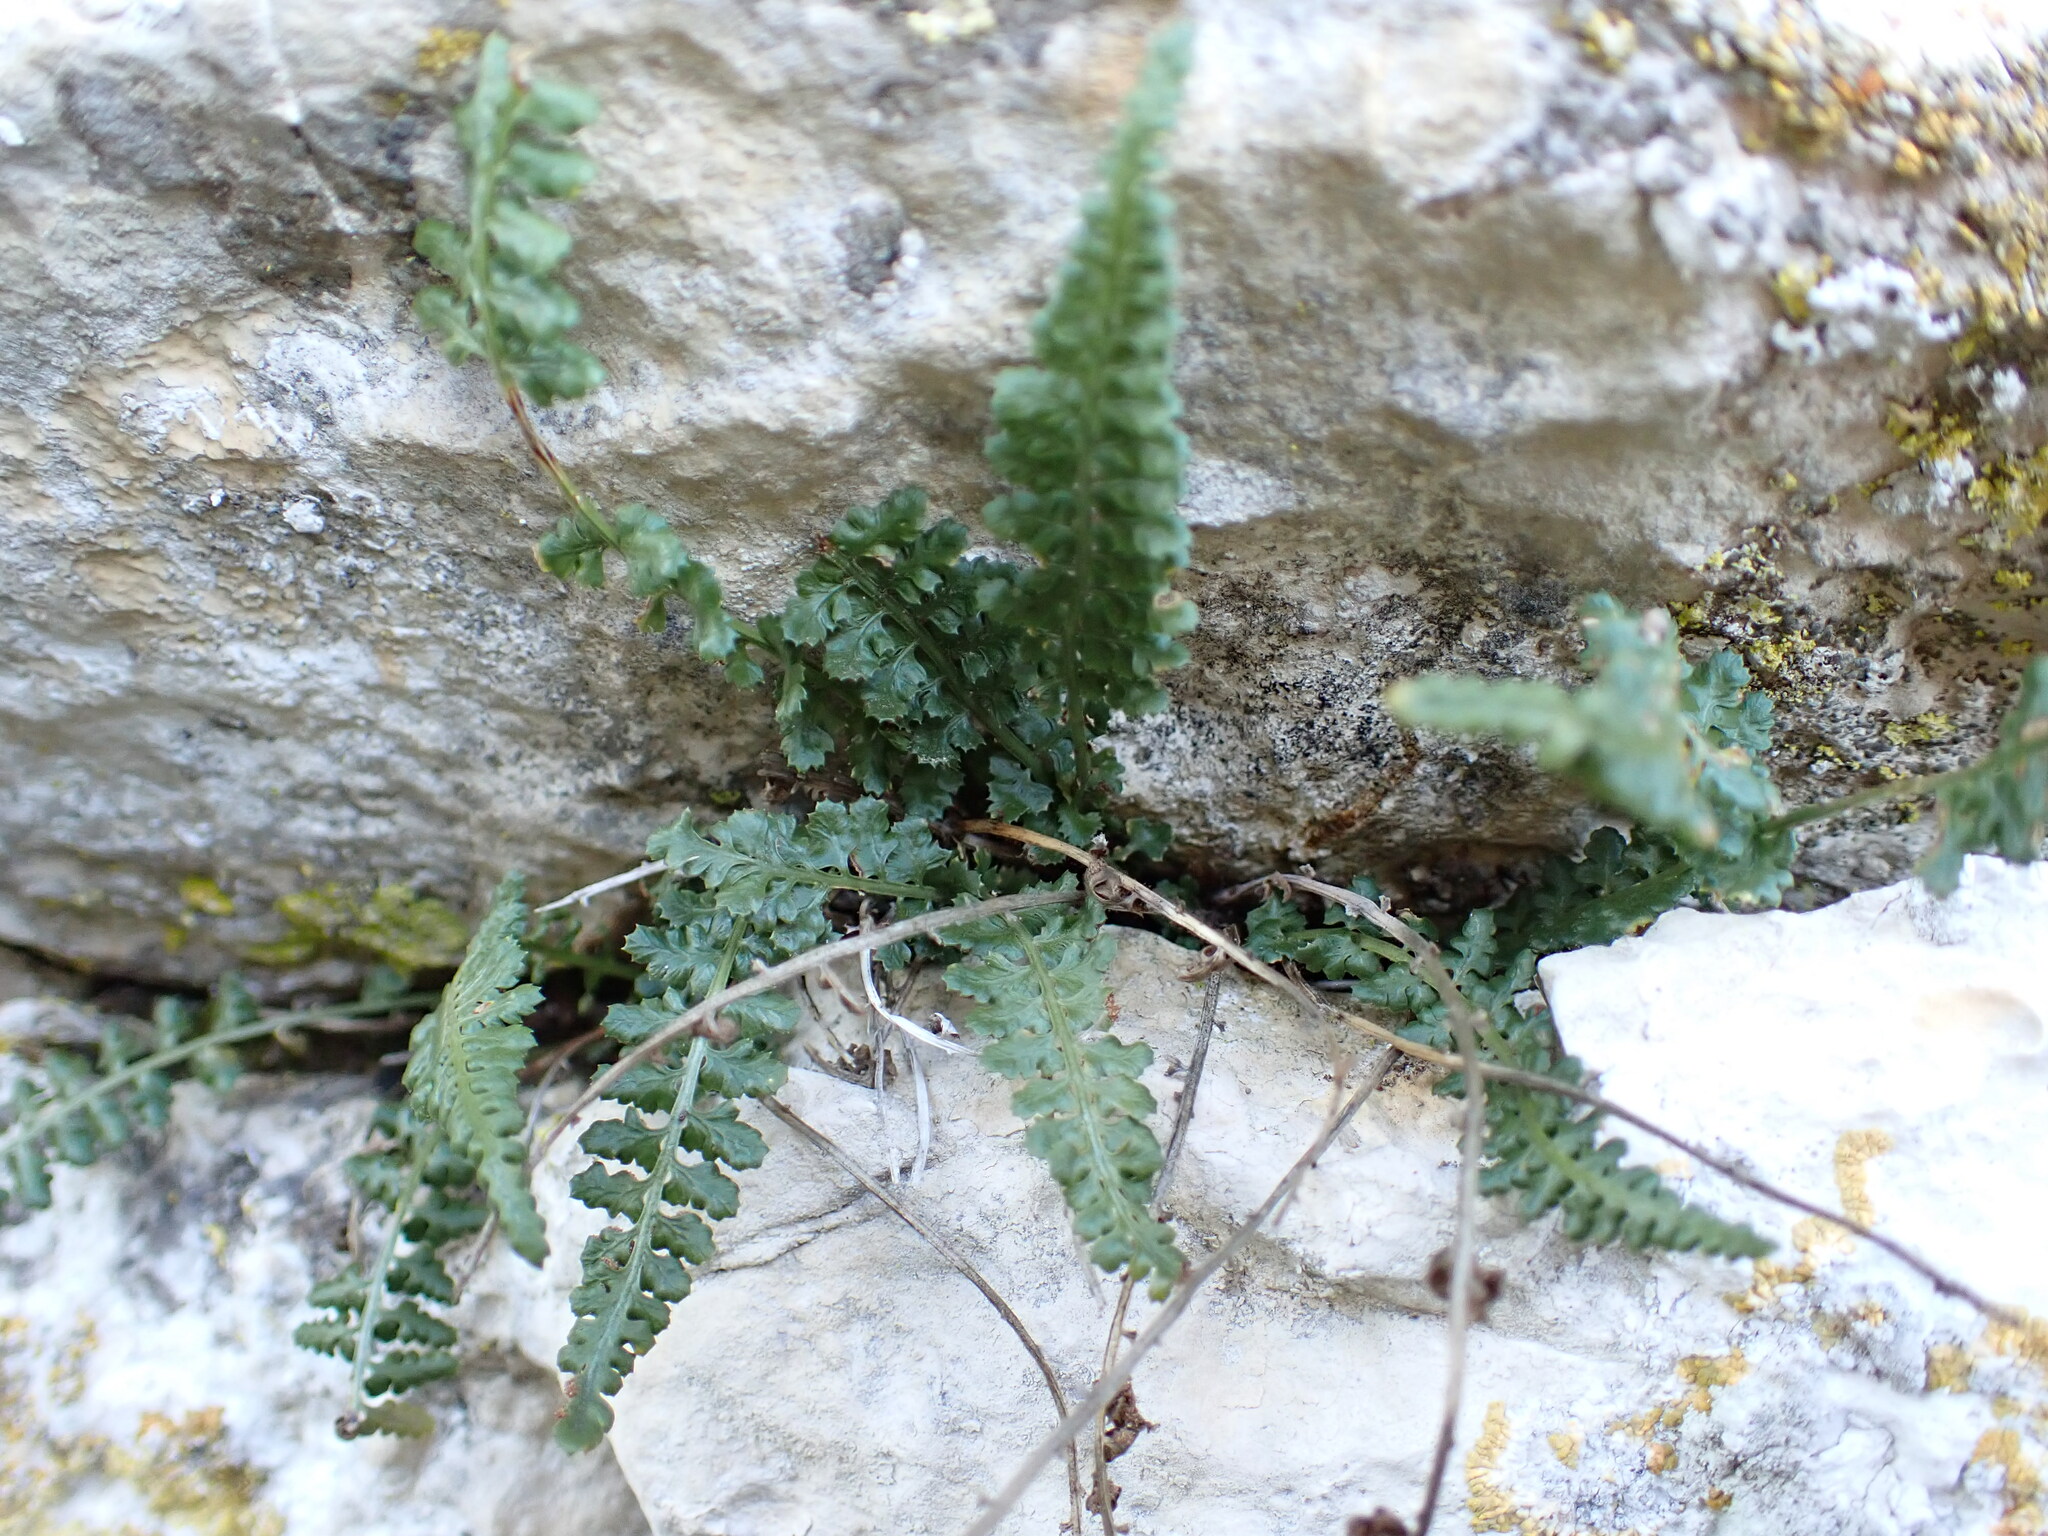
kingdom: Plantae
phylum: Tracheophyta
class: Polypodiopsida
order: Polypodiales
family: Aspleniaceae
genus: Asplenium
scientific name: Asplenium fontanum
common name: Fountain spleenwort
